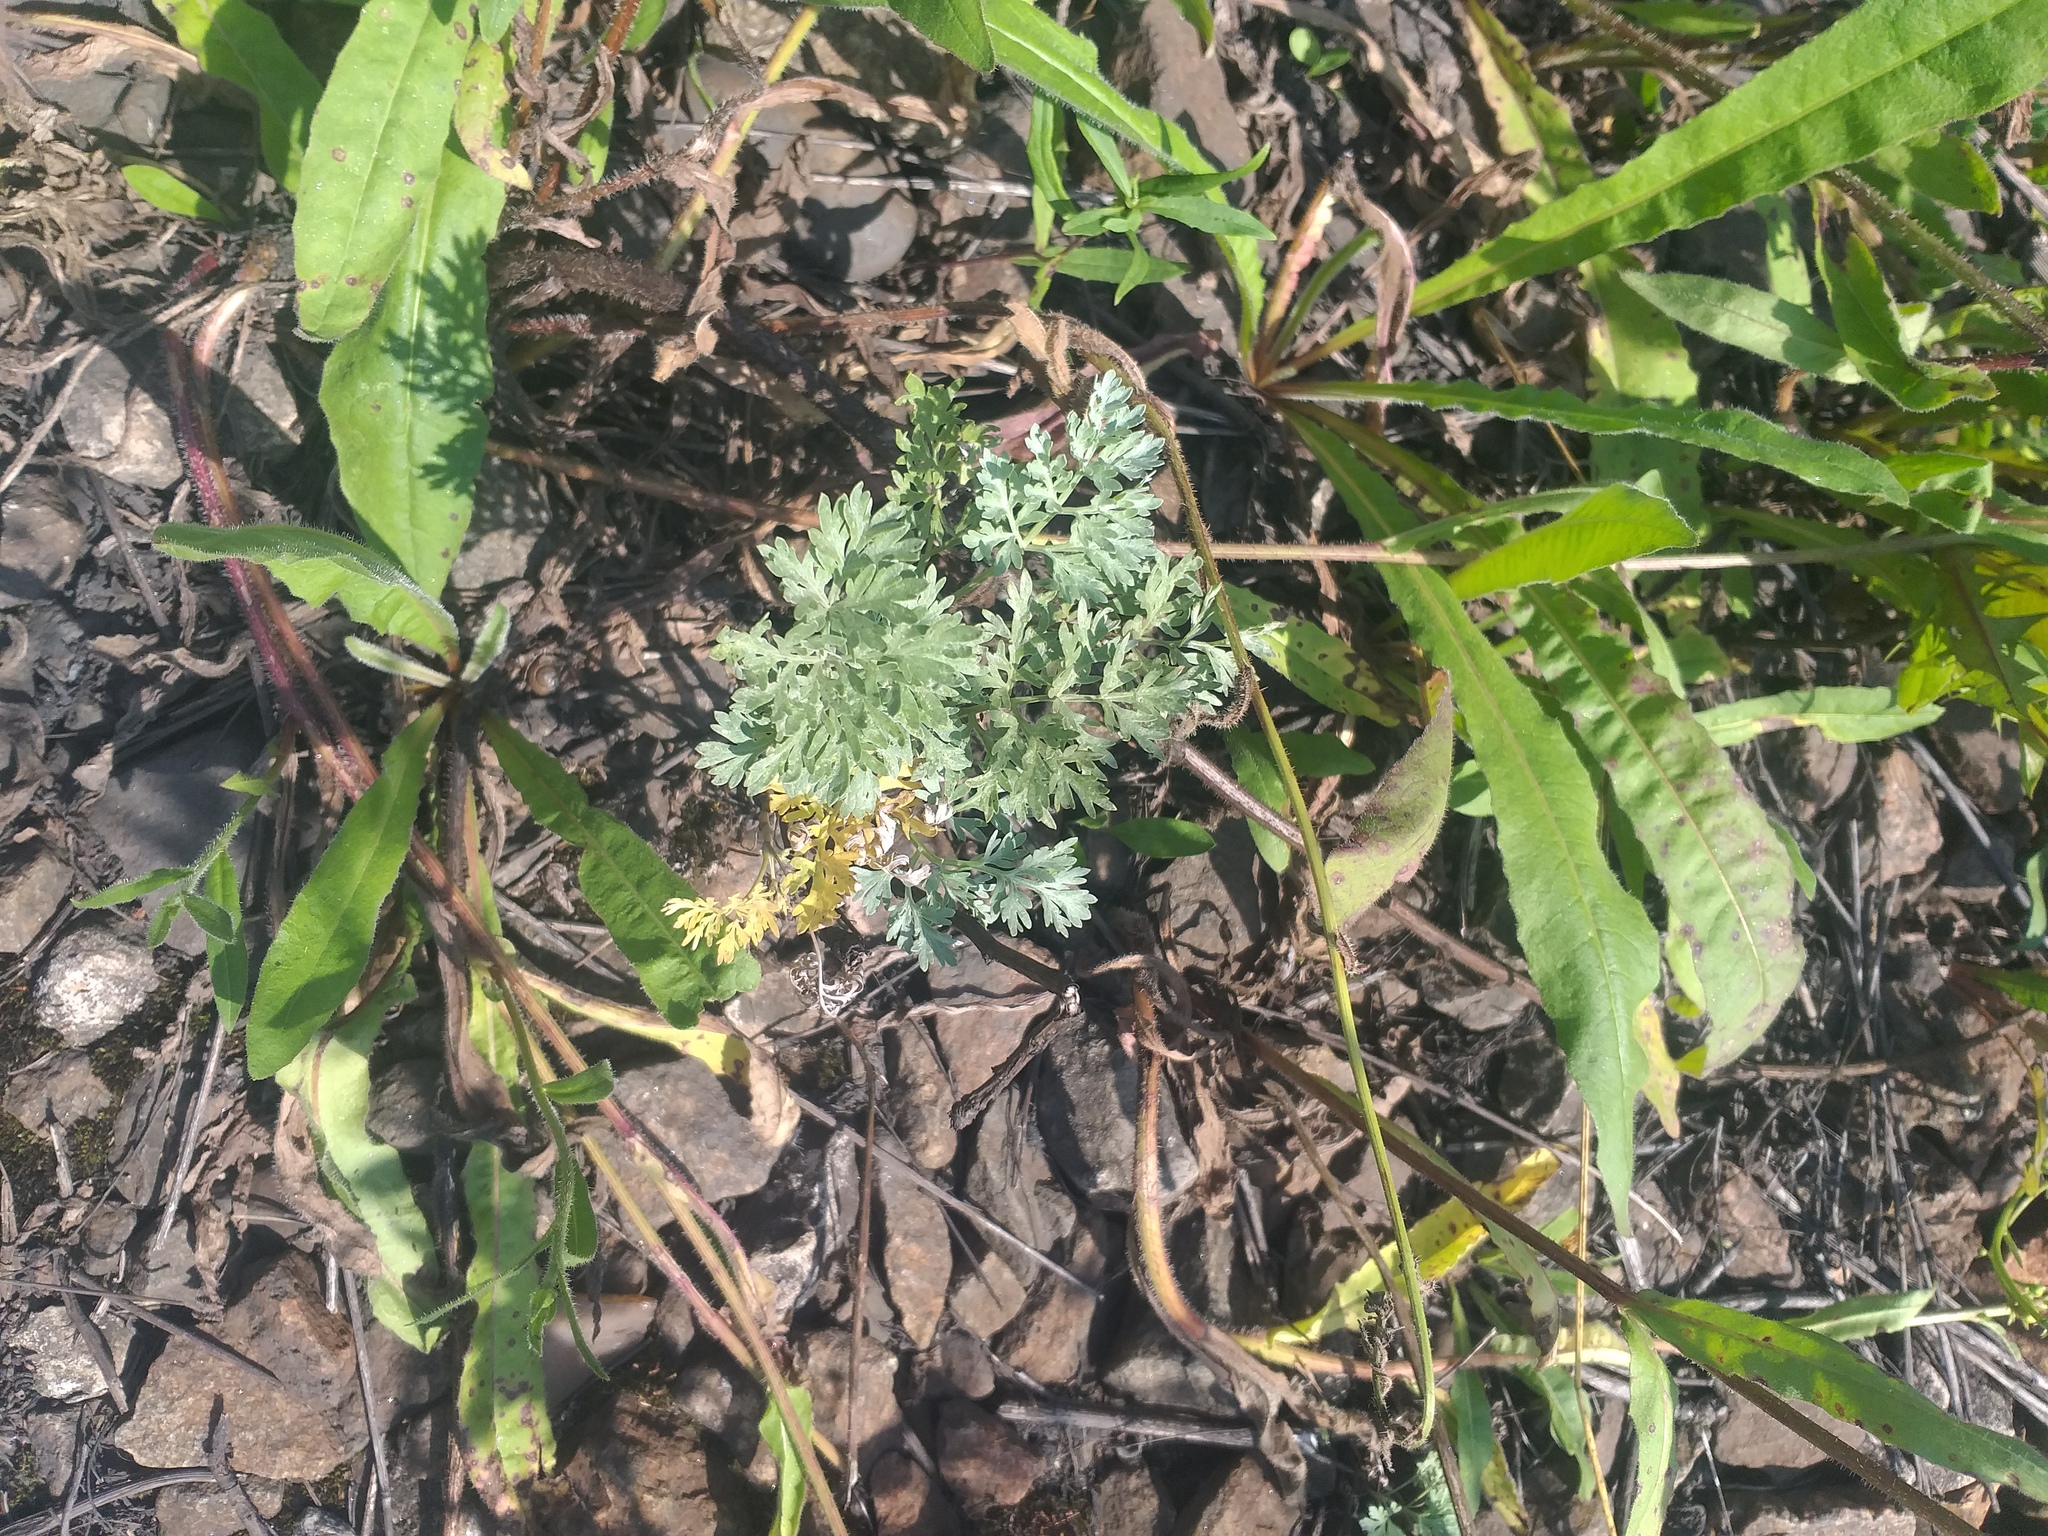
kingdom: Plantae
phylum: Tracheophyta
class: Magnoliopsida
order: Asterales
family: Asteraceae
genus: Artemisia
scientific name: Artemisia absinthium
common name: Wormwood
